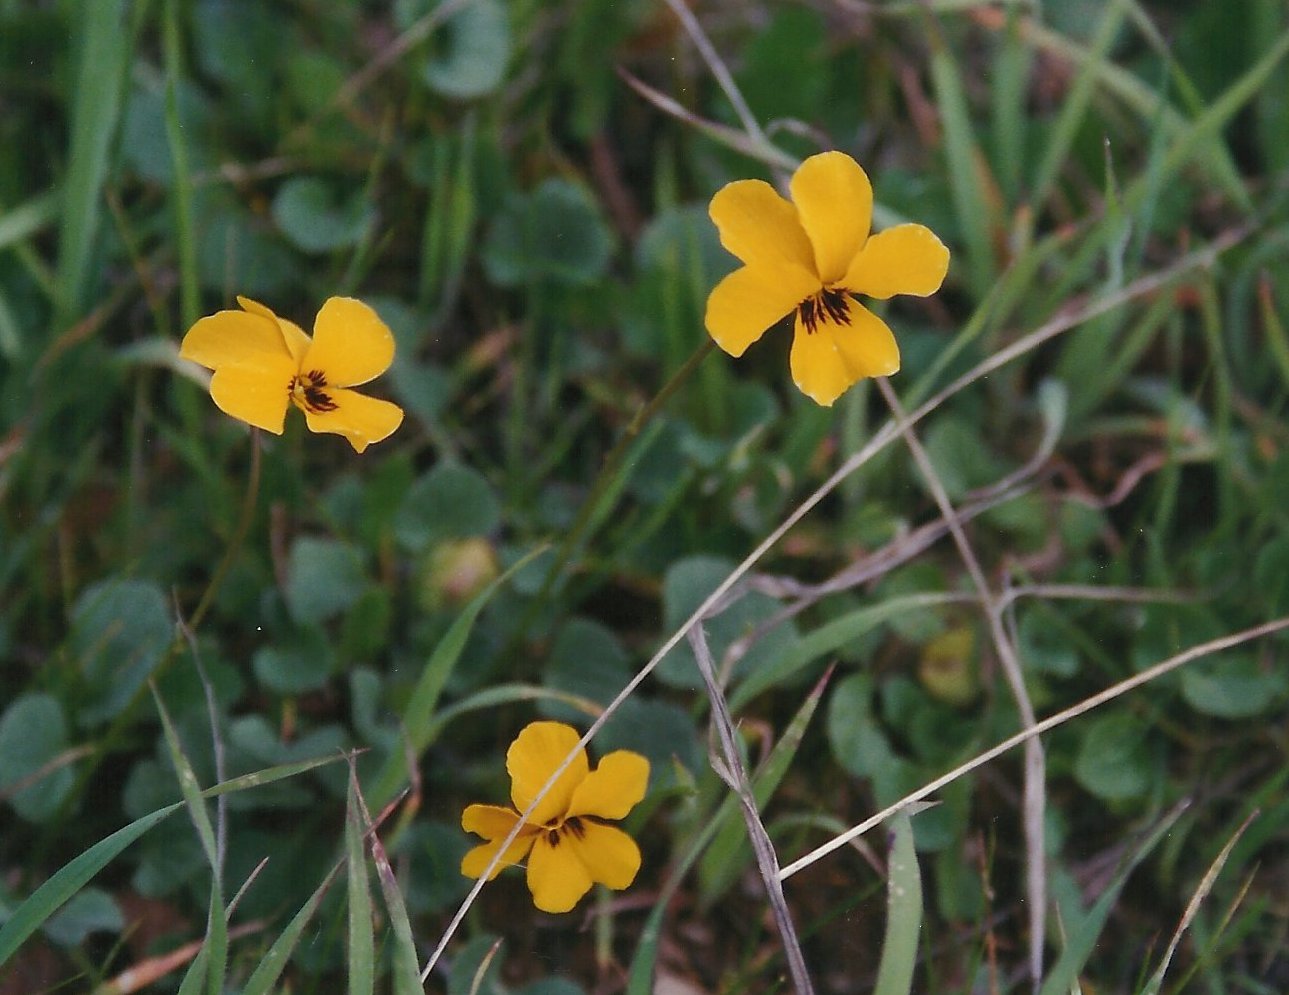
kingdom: Plantae
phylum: Tracheophyta
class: Magnoliopsida
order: Malpighiales
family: Violaceae
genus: Viola
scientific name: Viola pedunculata
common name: California golden violet
